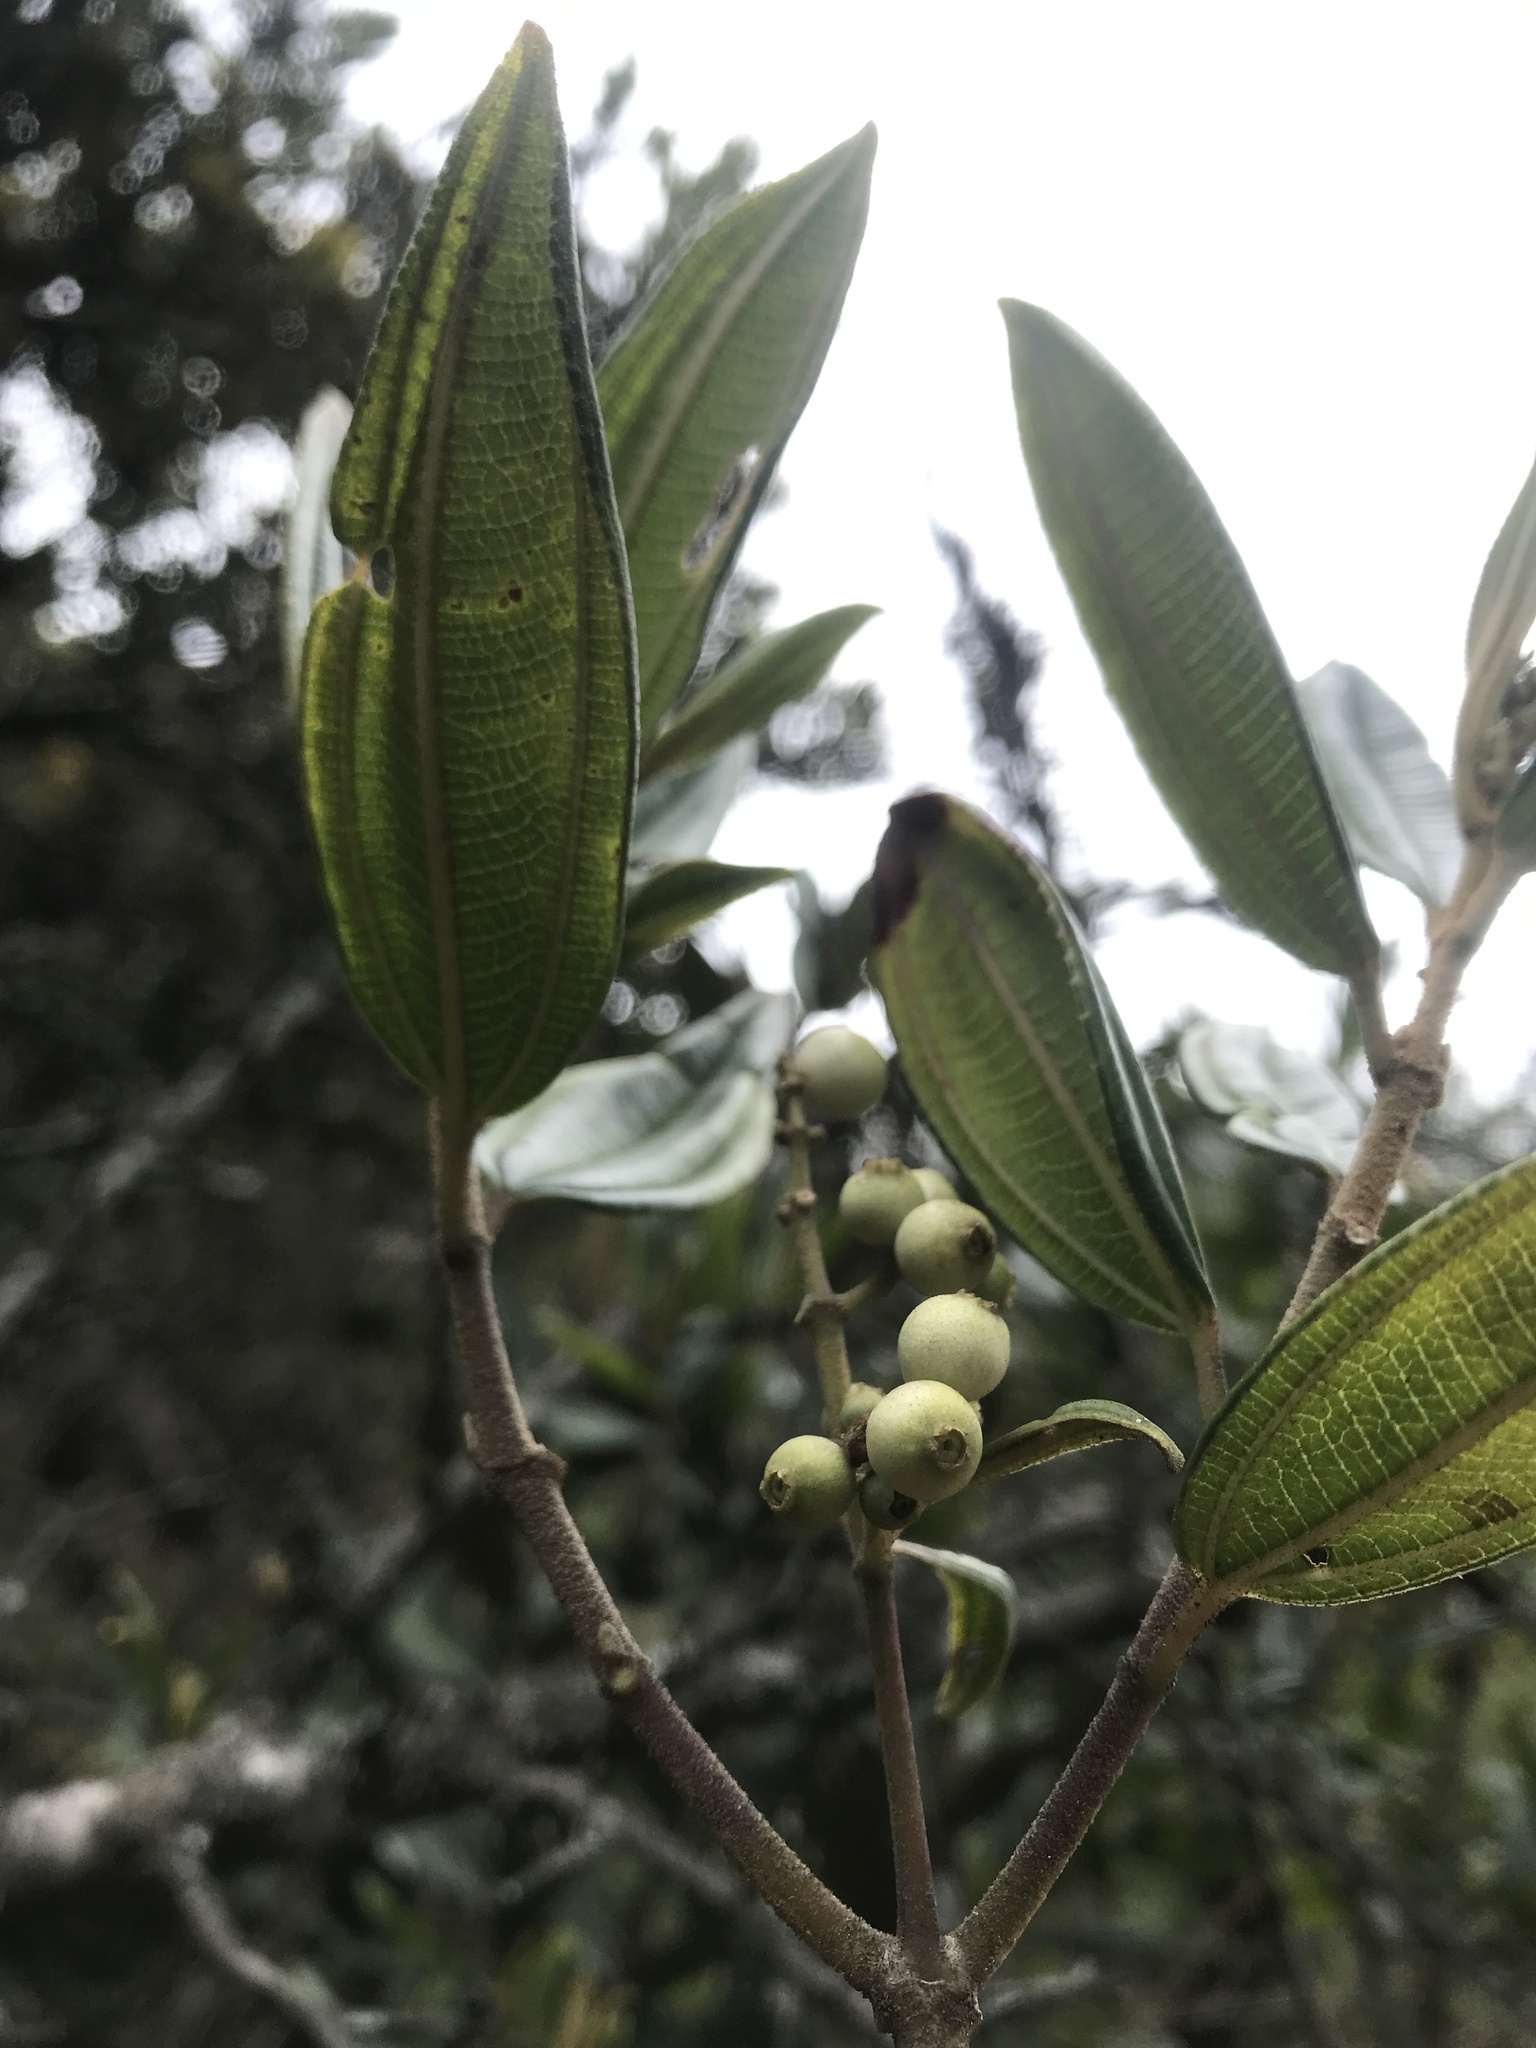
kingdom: Plantae
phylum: Tracheophyta
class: Magnoliopsida
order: Myrtales
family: Melastomataceae
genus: Miconia
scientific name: Miconia elaeoides
